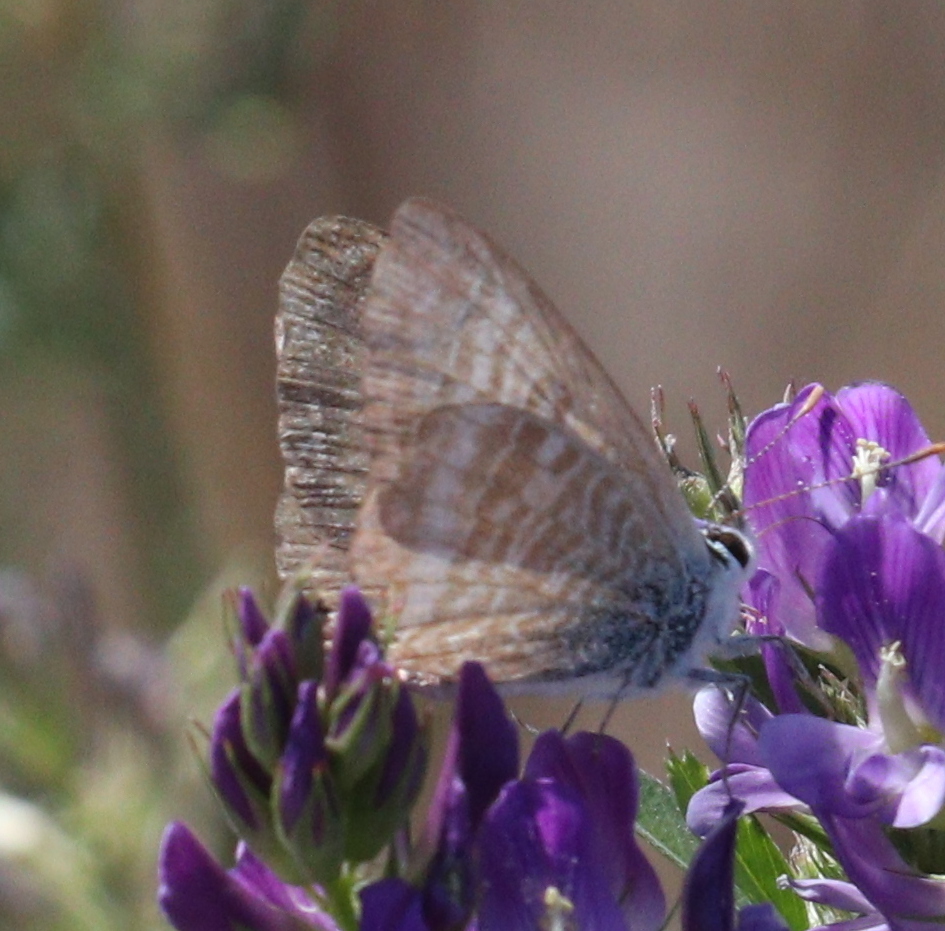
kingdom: Animalia
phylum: Arthropoda
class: Insecta
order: Lepidoptera
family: Lycaenidae
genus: Lampides
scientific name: Lampides boeticus
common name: Long-tailed blue
